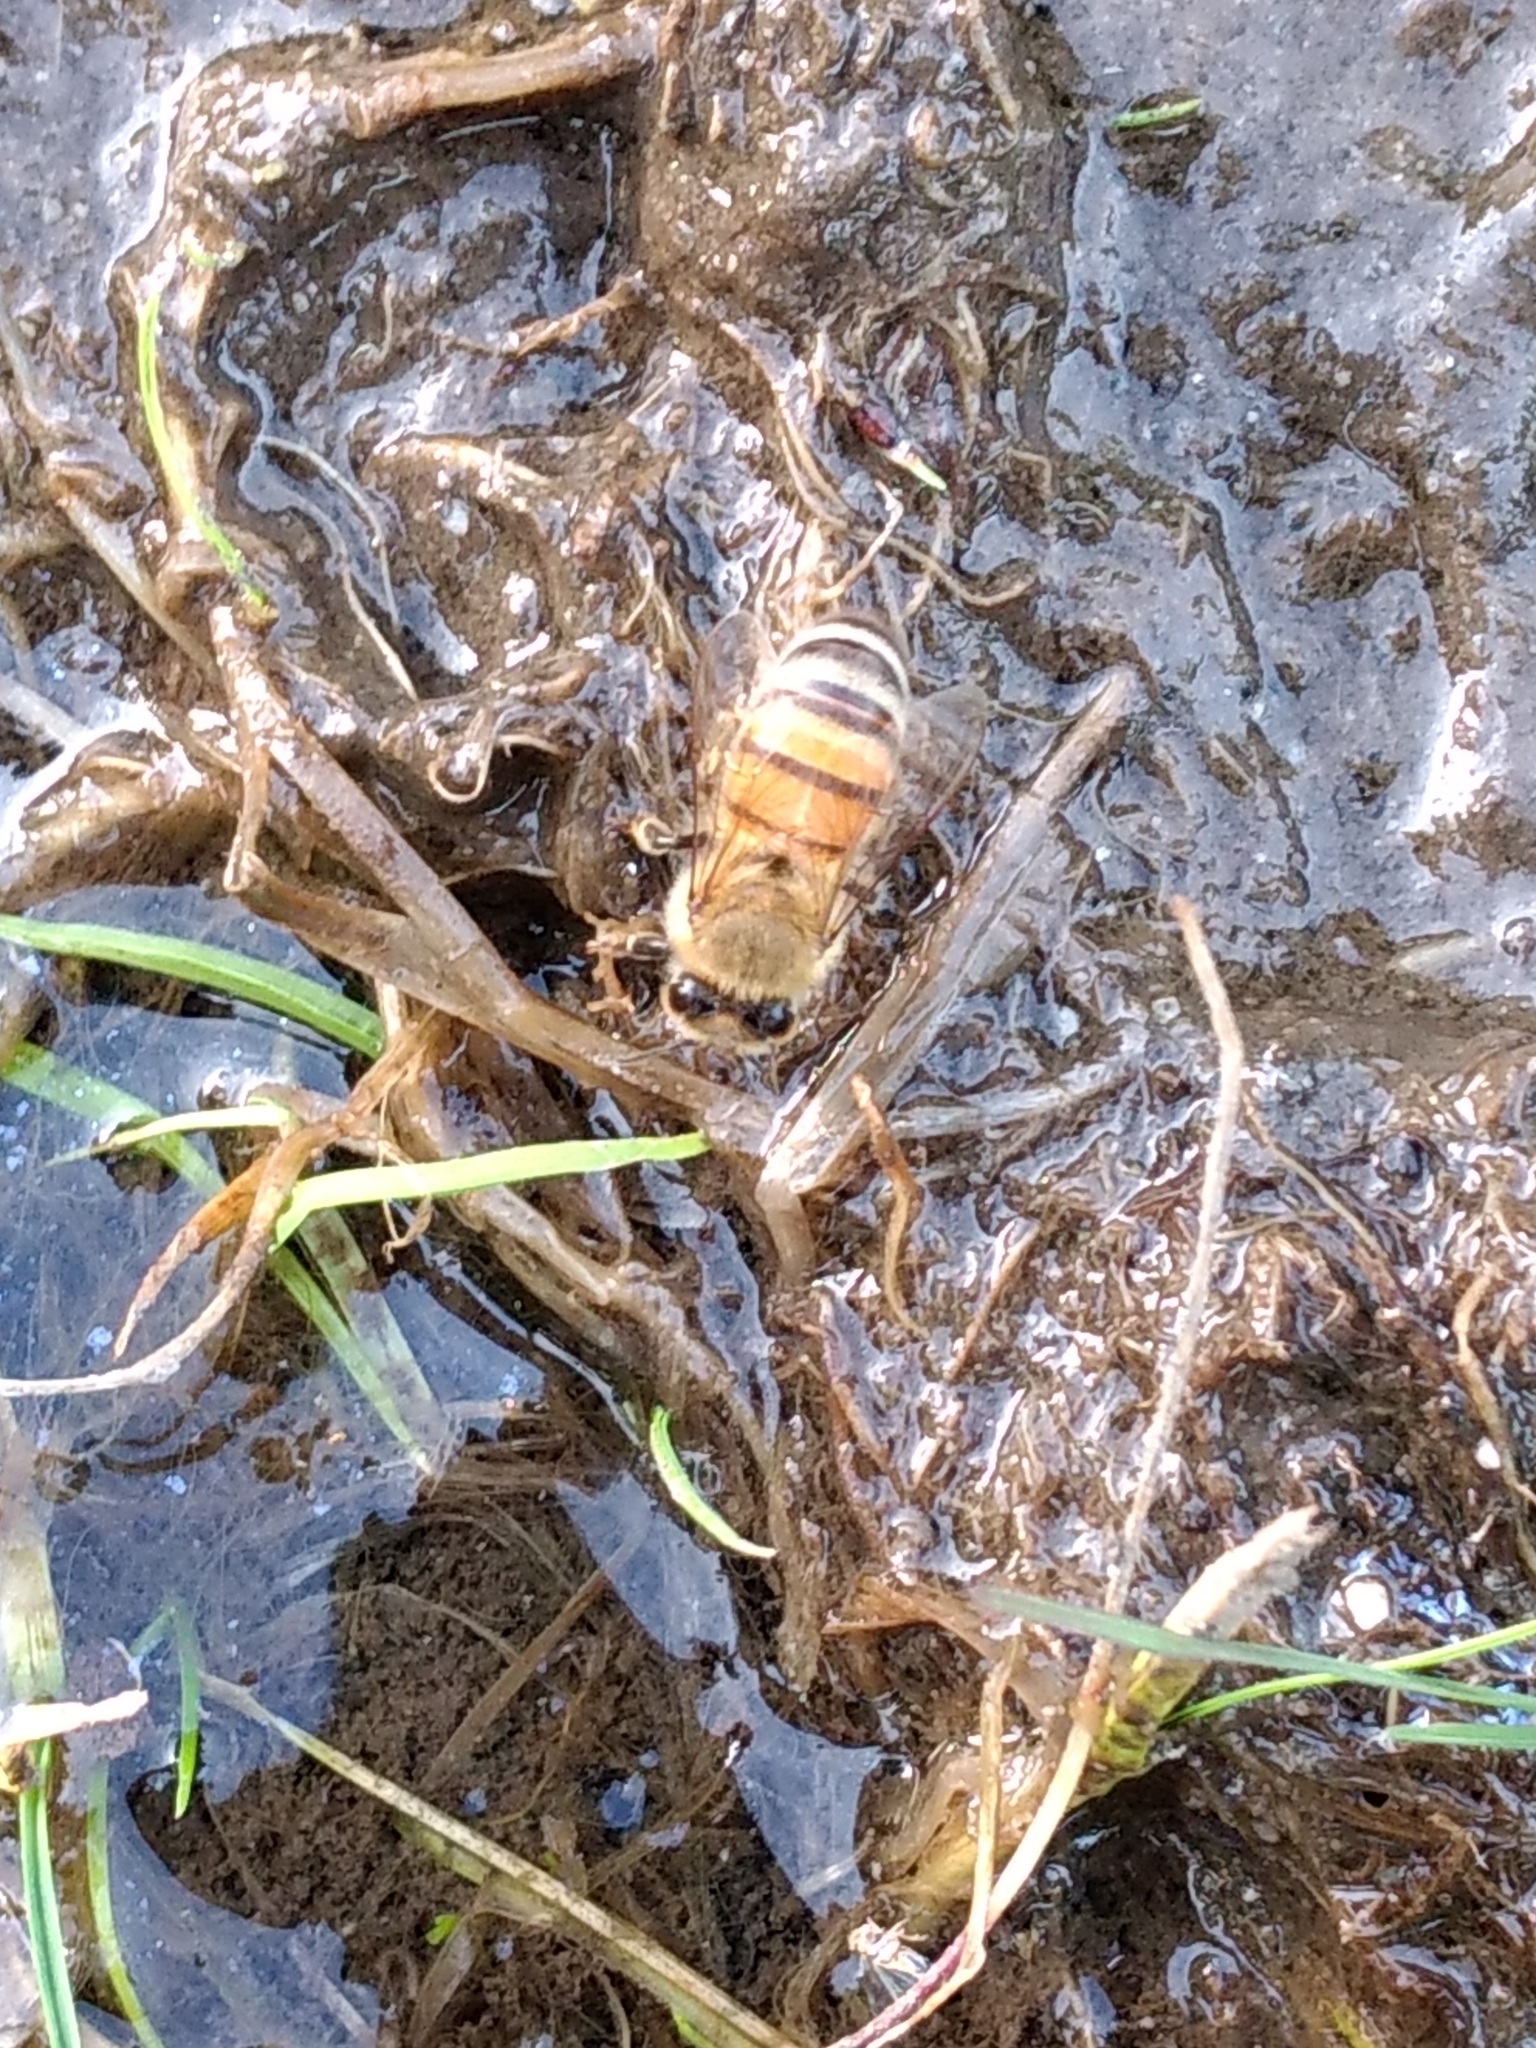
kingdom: Animalia
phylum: Arthropoda
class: Insecta
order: Hymenoptera
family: Apidae
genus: Apis
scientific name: Apis mellifera
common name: Honey bee
